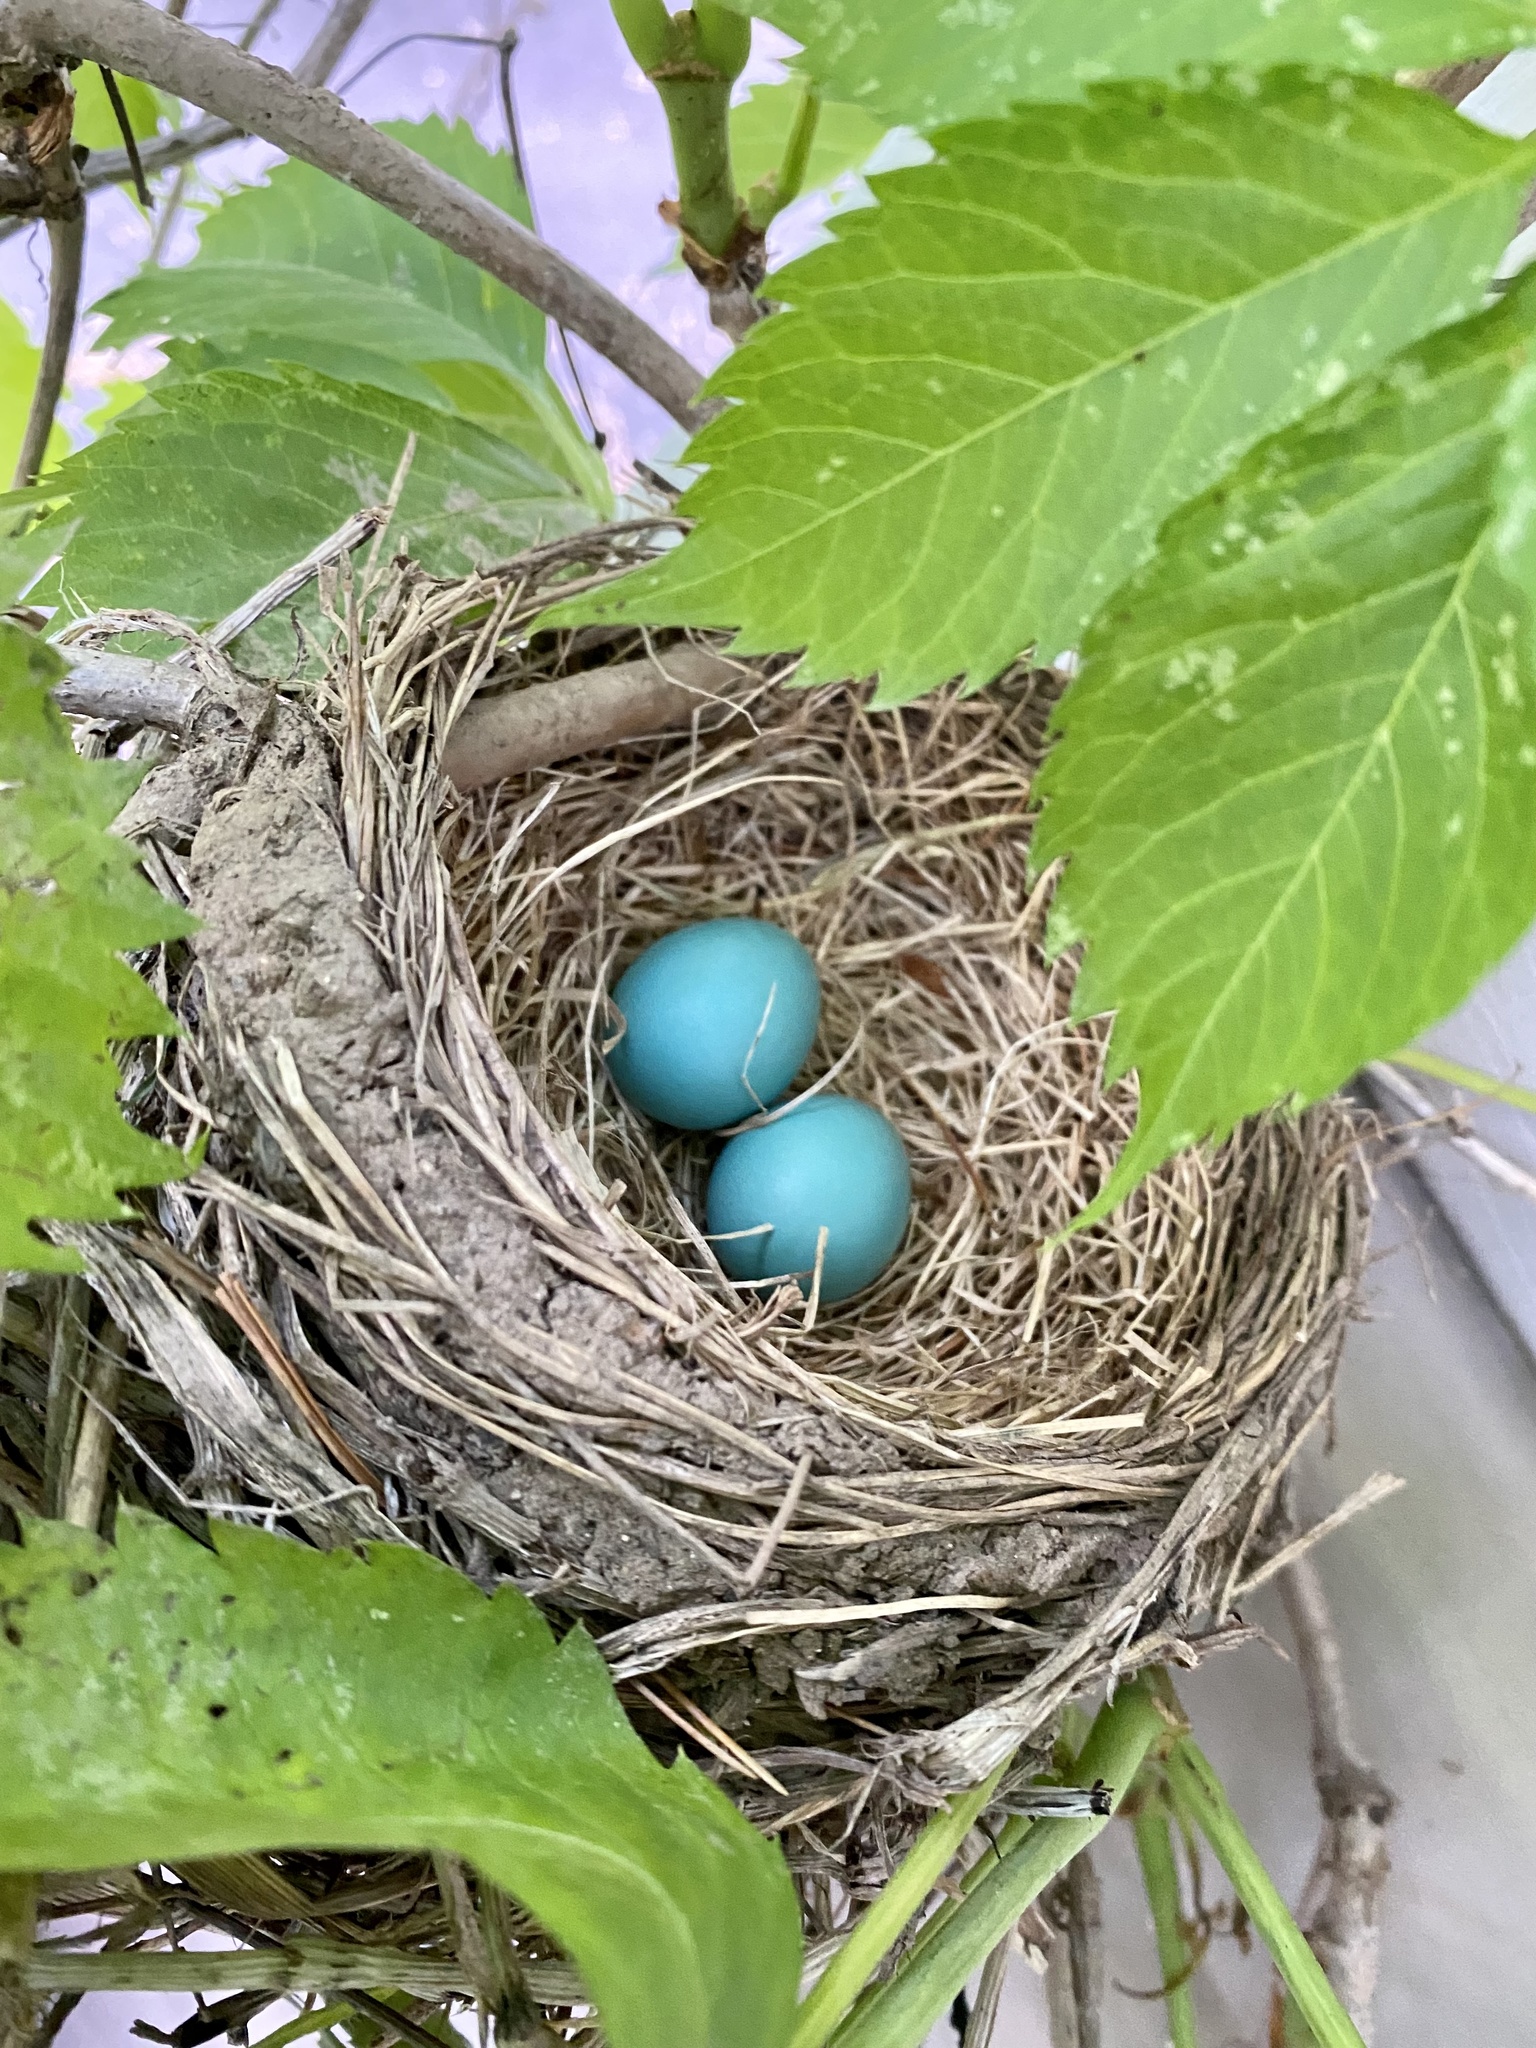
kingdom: Animalia
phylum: Chordata
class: Aves
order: Passeriformes
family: Turdidae
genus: Turdus
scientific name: Turdus migratorius
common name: American robin
